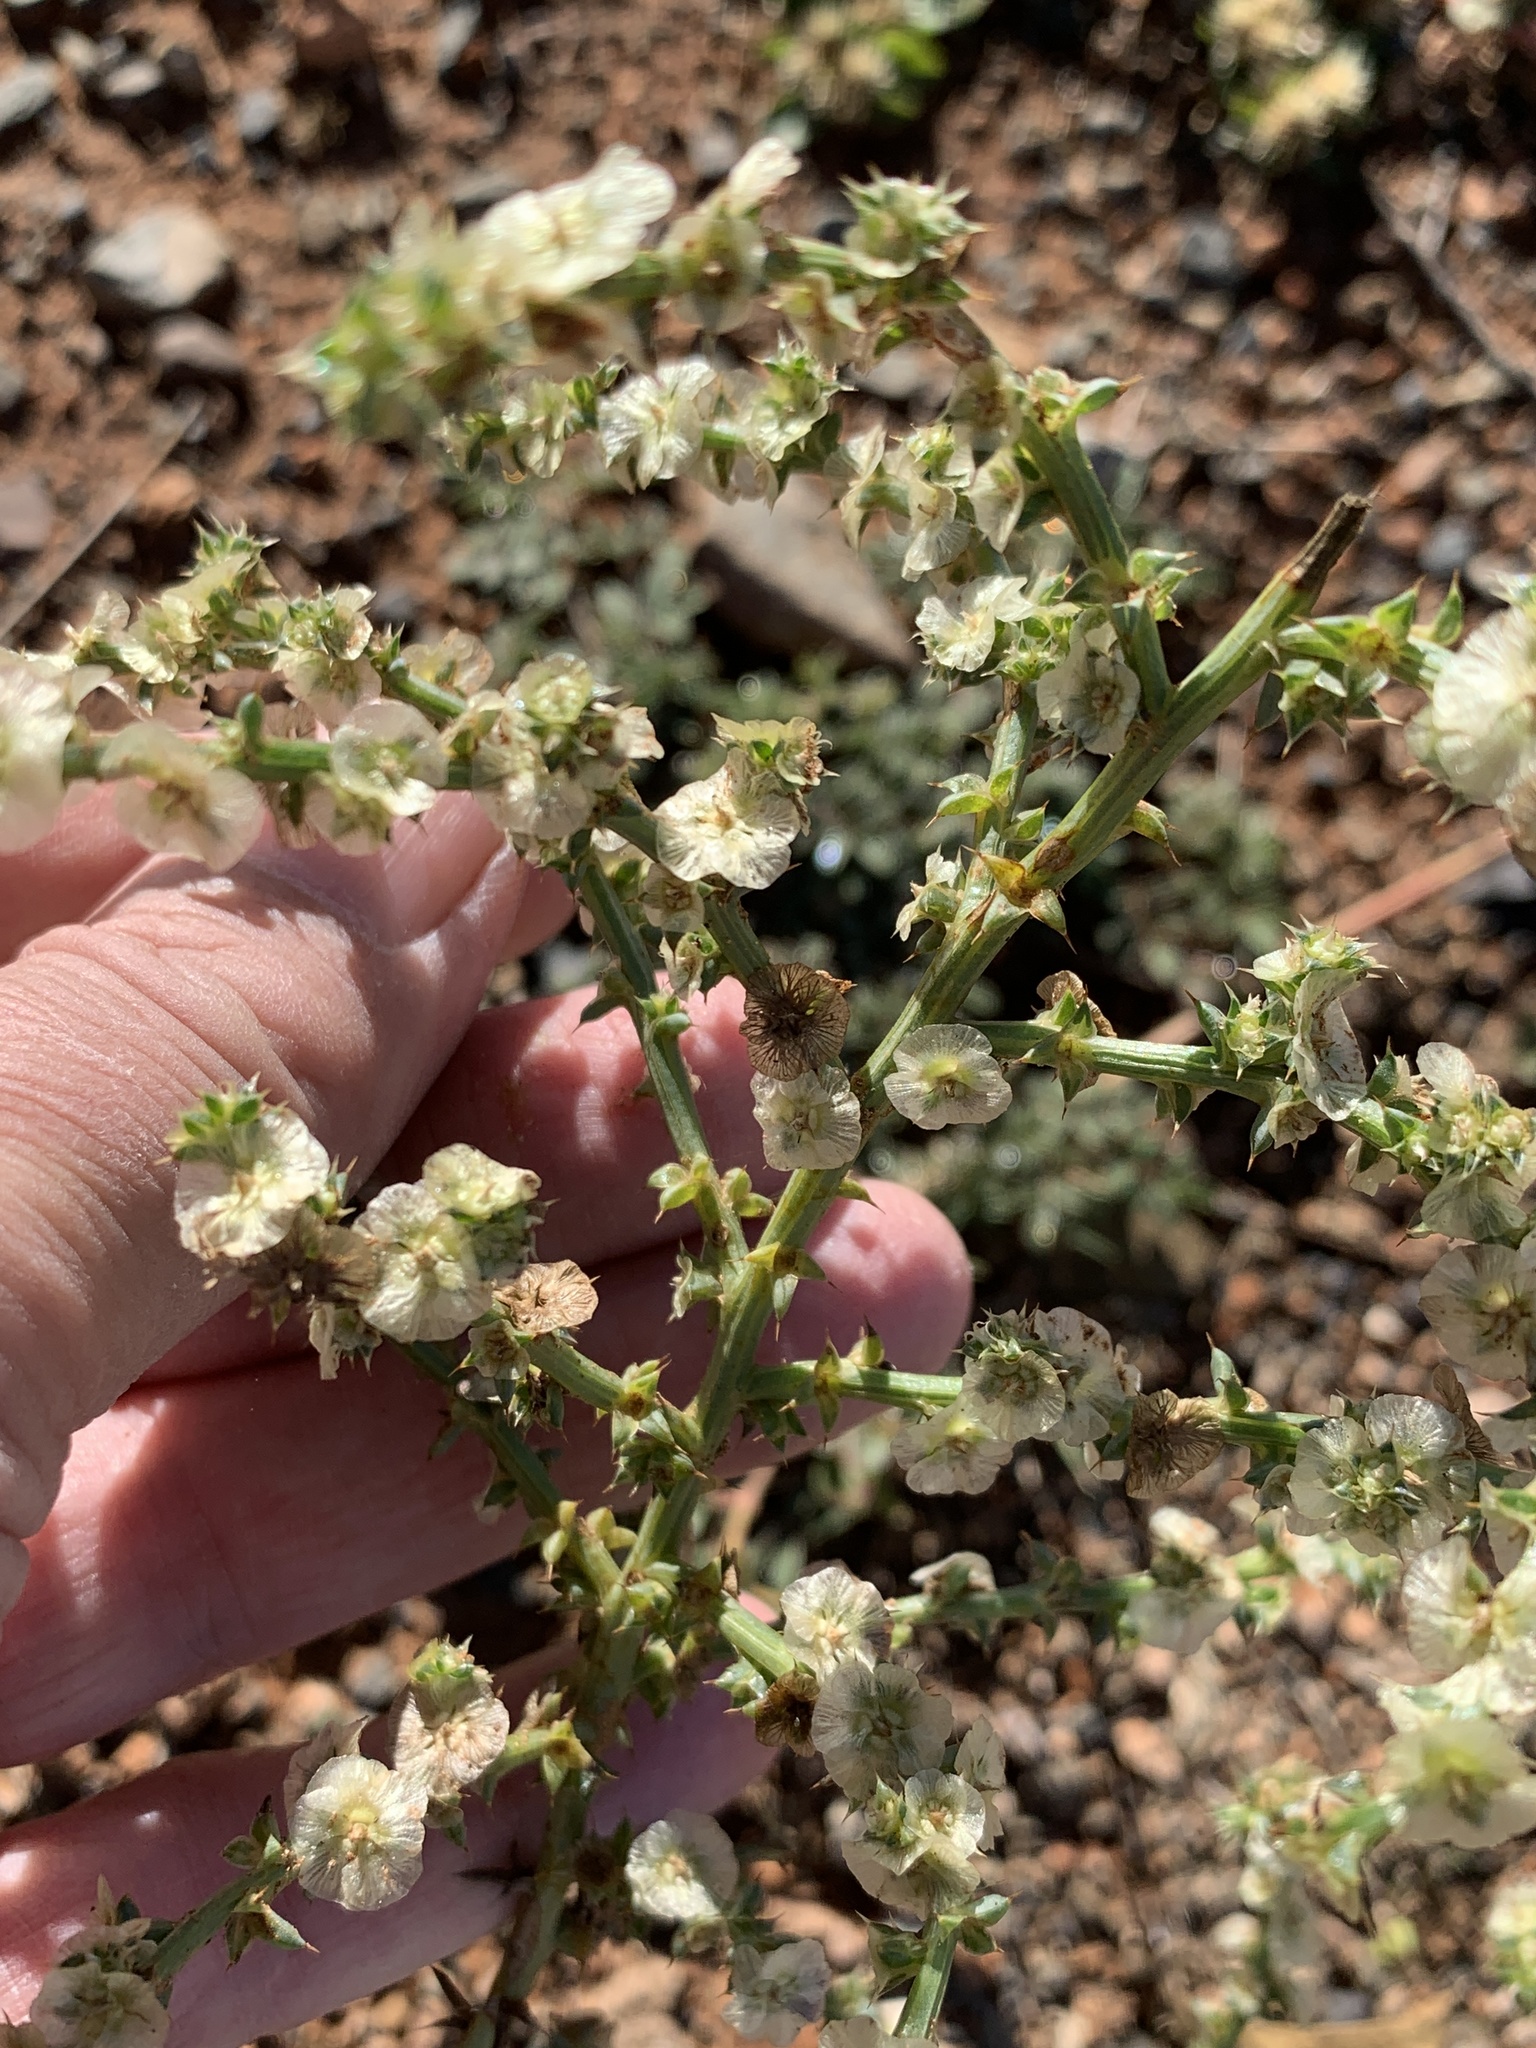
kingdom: Plantae
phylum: Tracheophyta
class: Magnoliopsida
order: Caryophyllales
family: Amaranthaceae
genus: Salsola
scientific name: Salsola kali
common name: Saltwort
